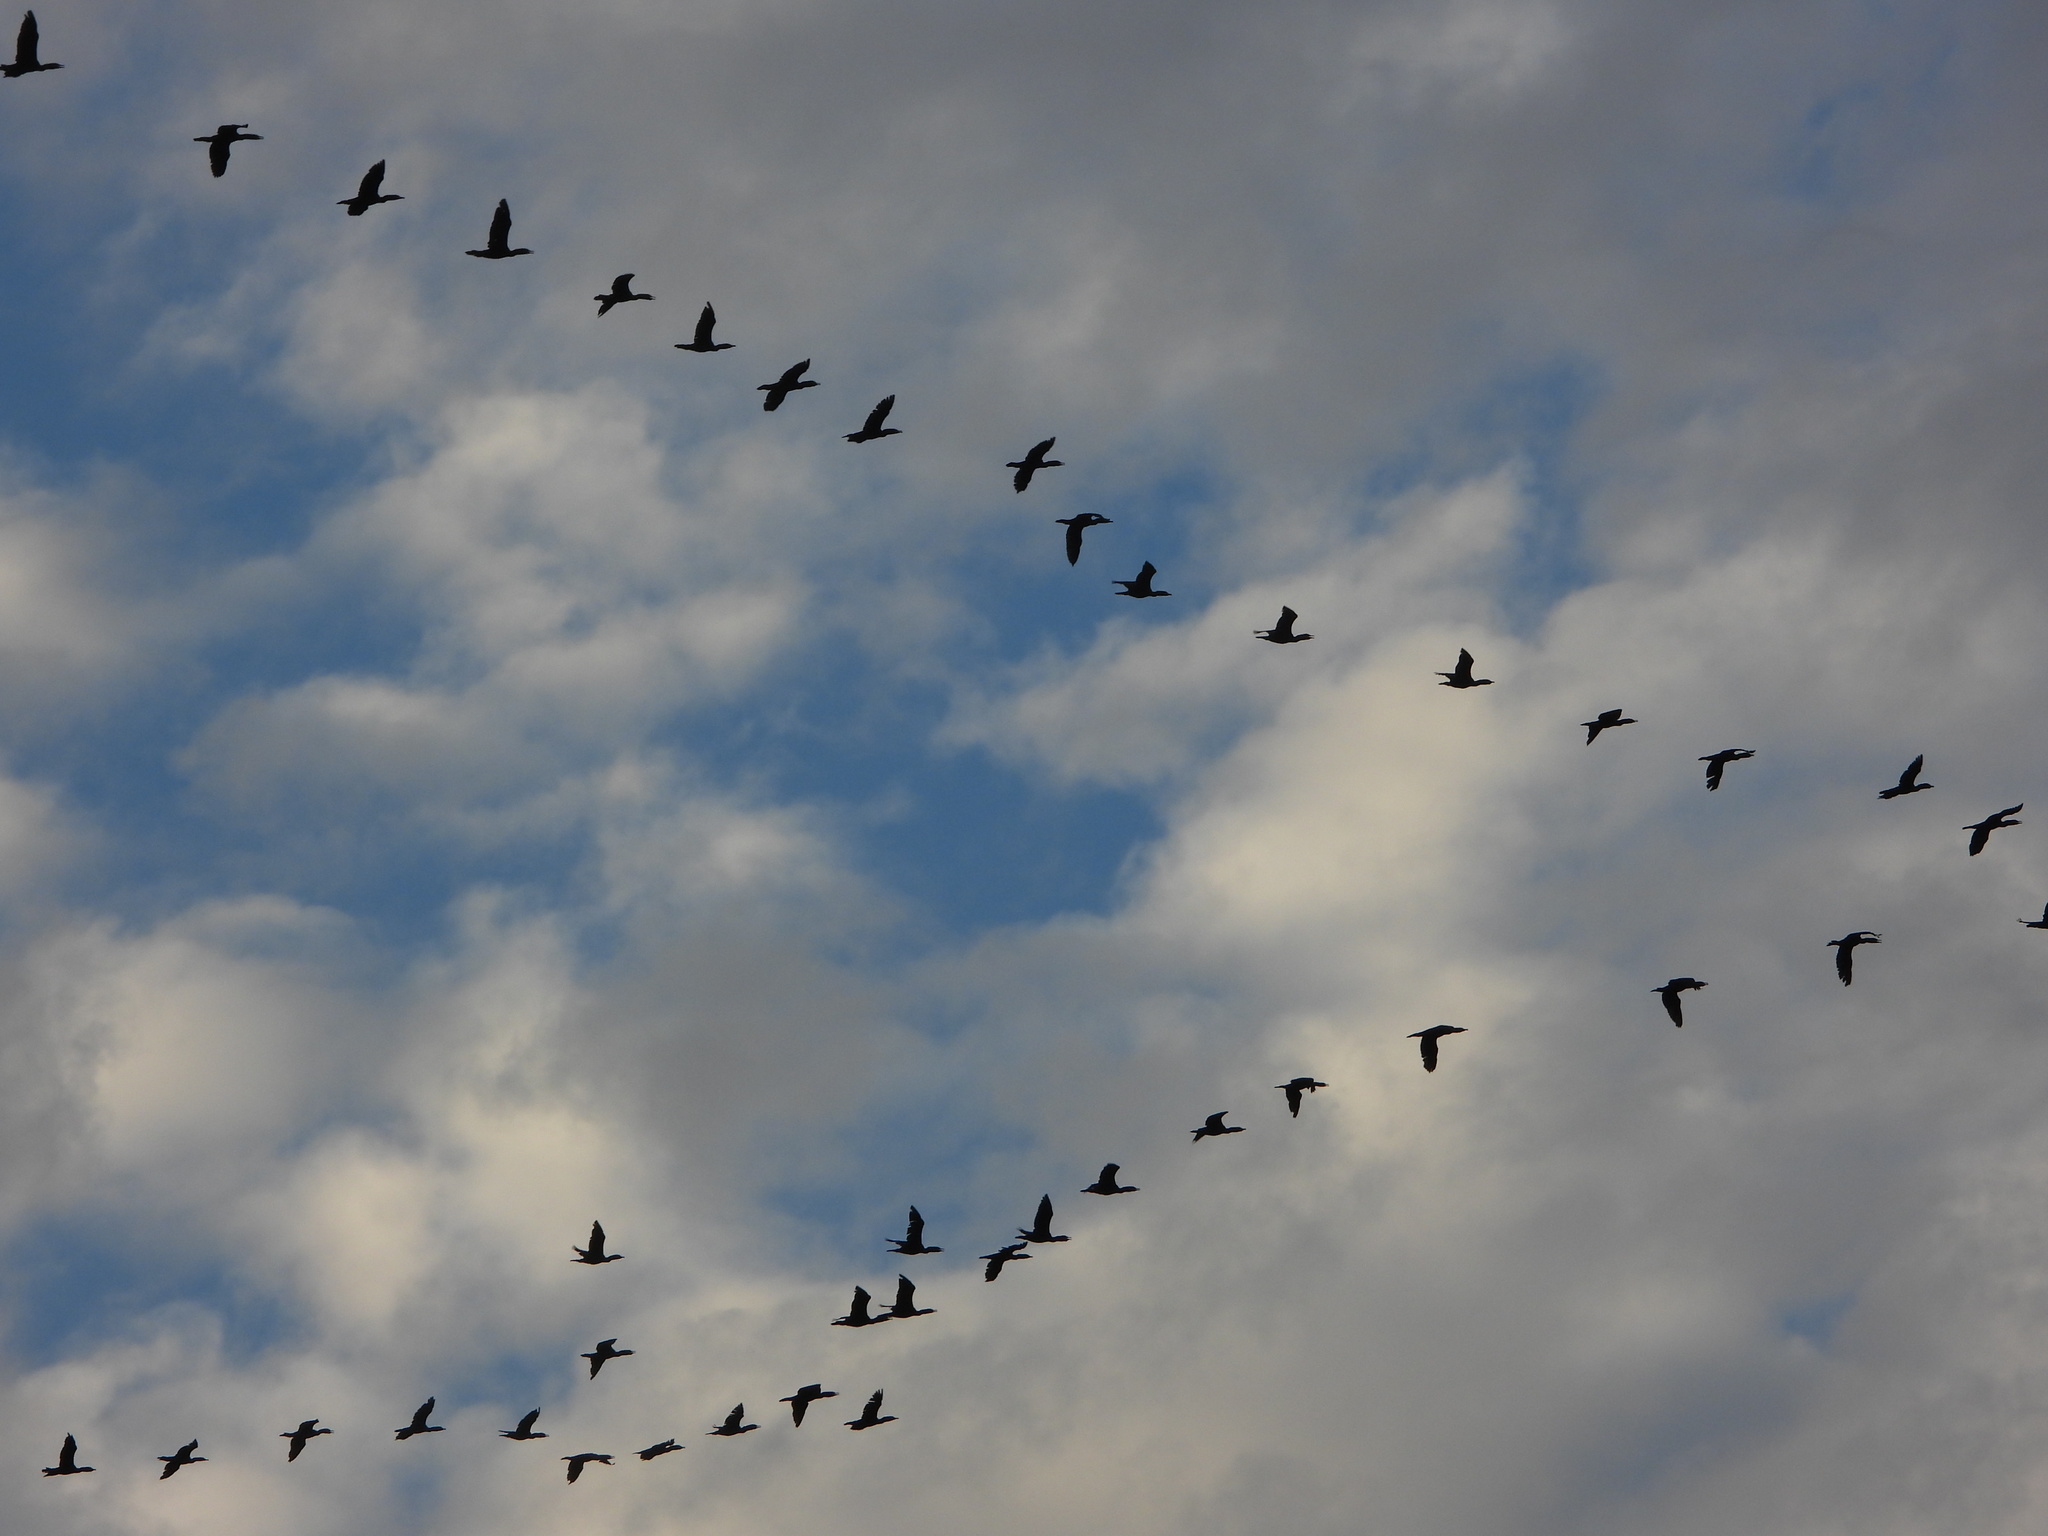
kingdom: Animalia
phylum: Chordata
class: Aves
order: Suliformes
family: Phalacrocoracidae
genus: Phalacrocorax
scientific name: Phalacrocorax auritus
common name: Double-crested cormorant
